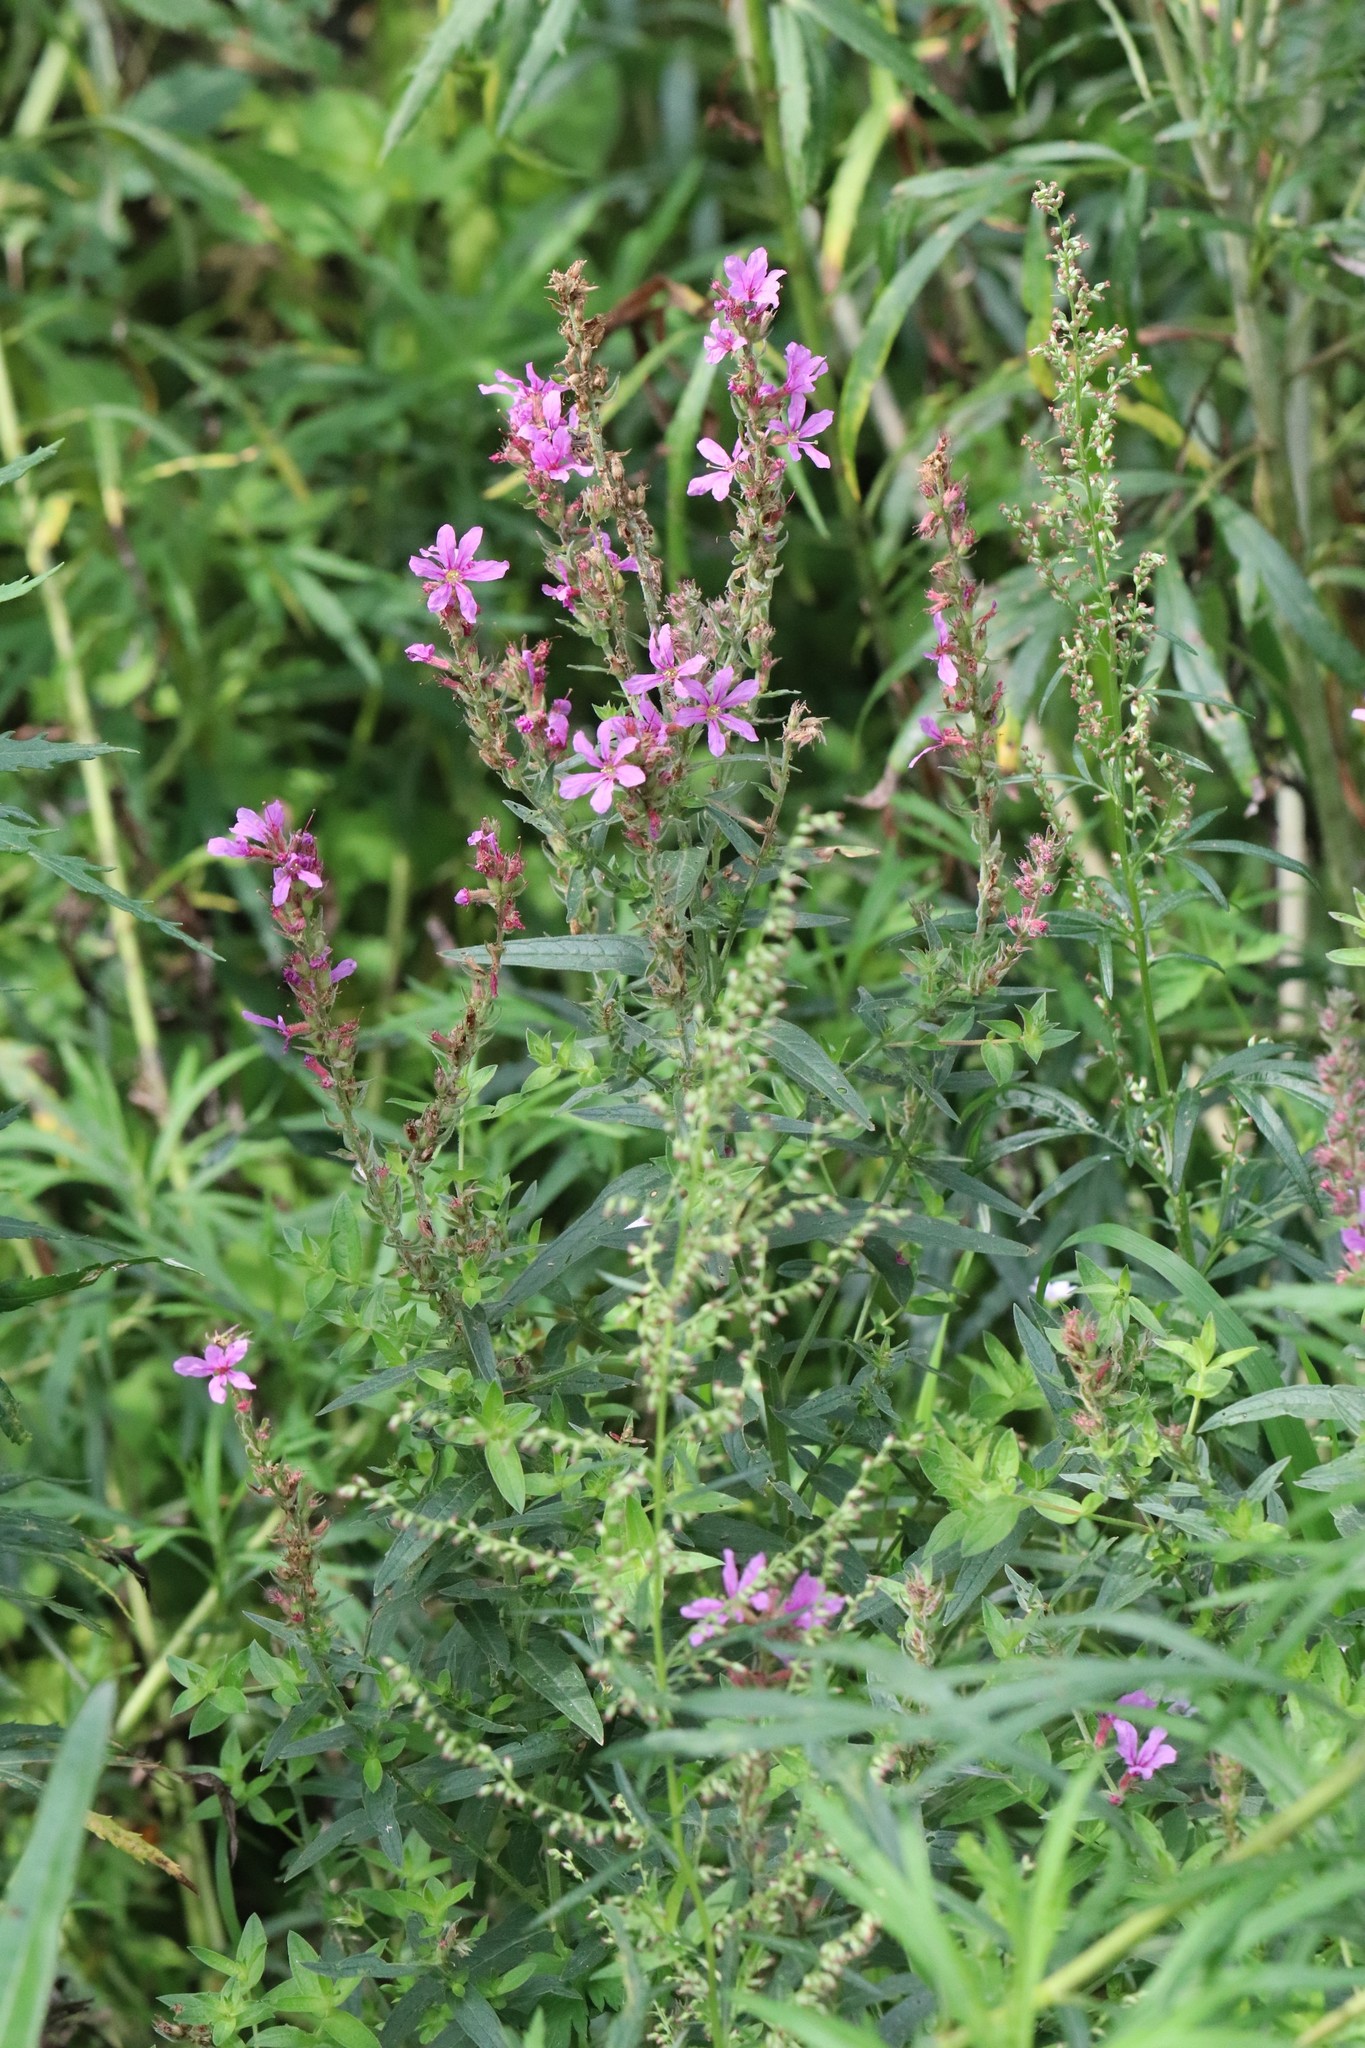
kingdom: Plantae
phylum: Tracheophyta
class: Magnoliopsida
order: Myrtales
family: Lythraceae
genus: Lythrum
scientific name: Lythrum salicaria
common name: Purple loosestrife
